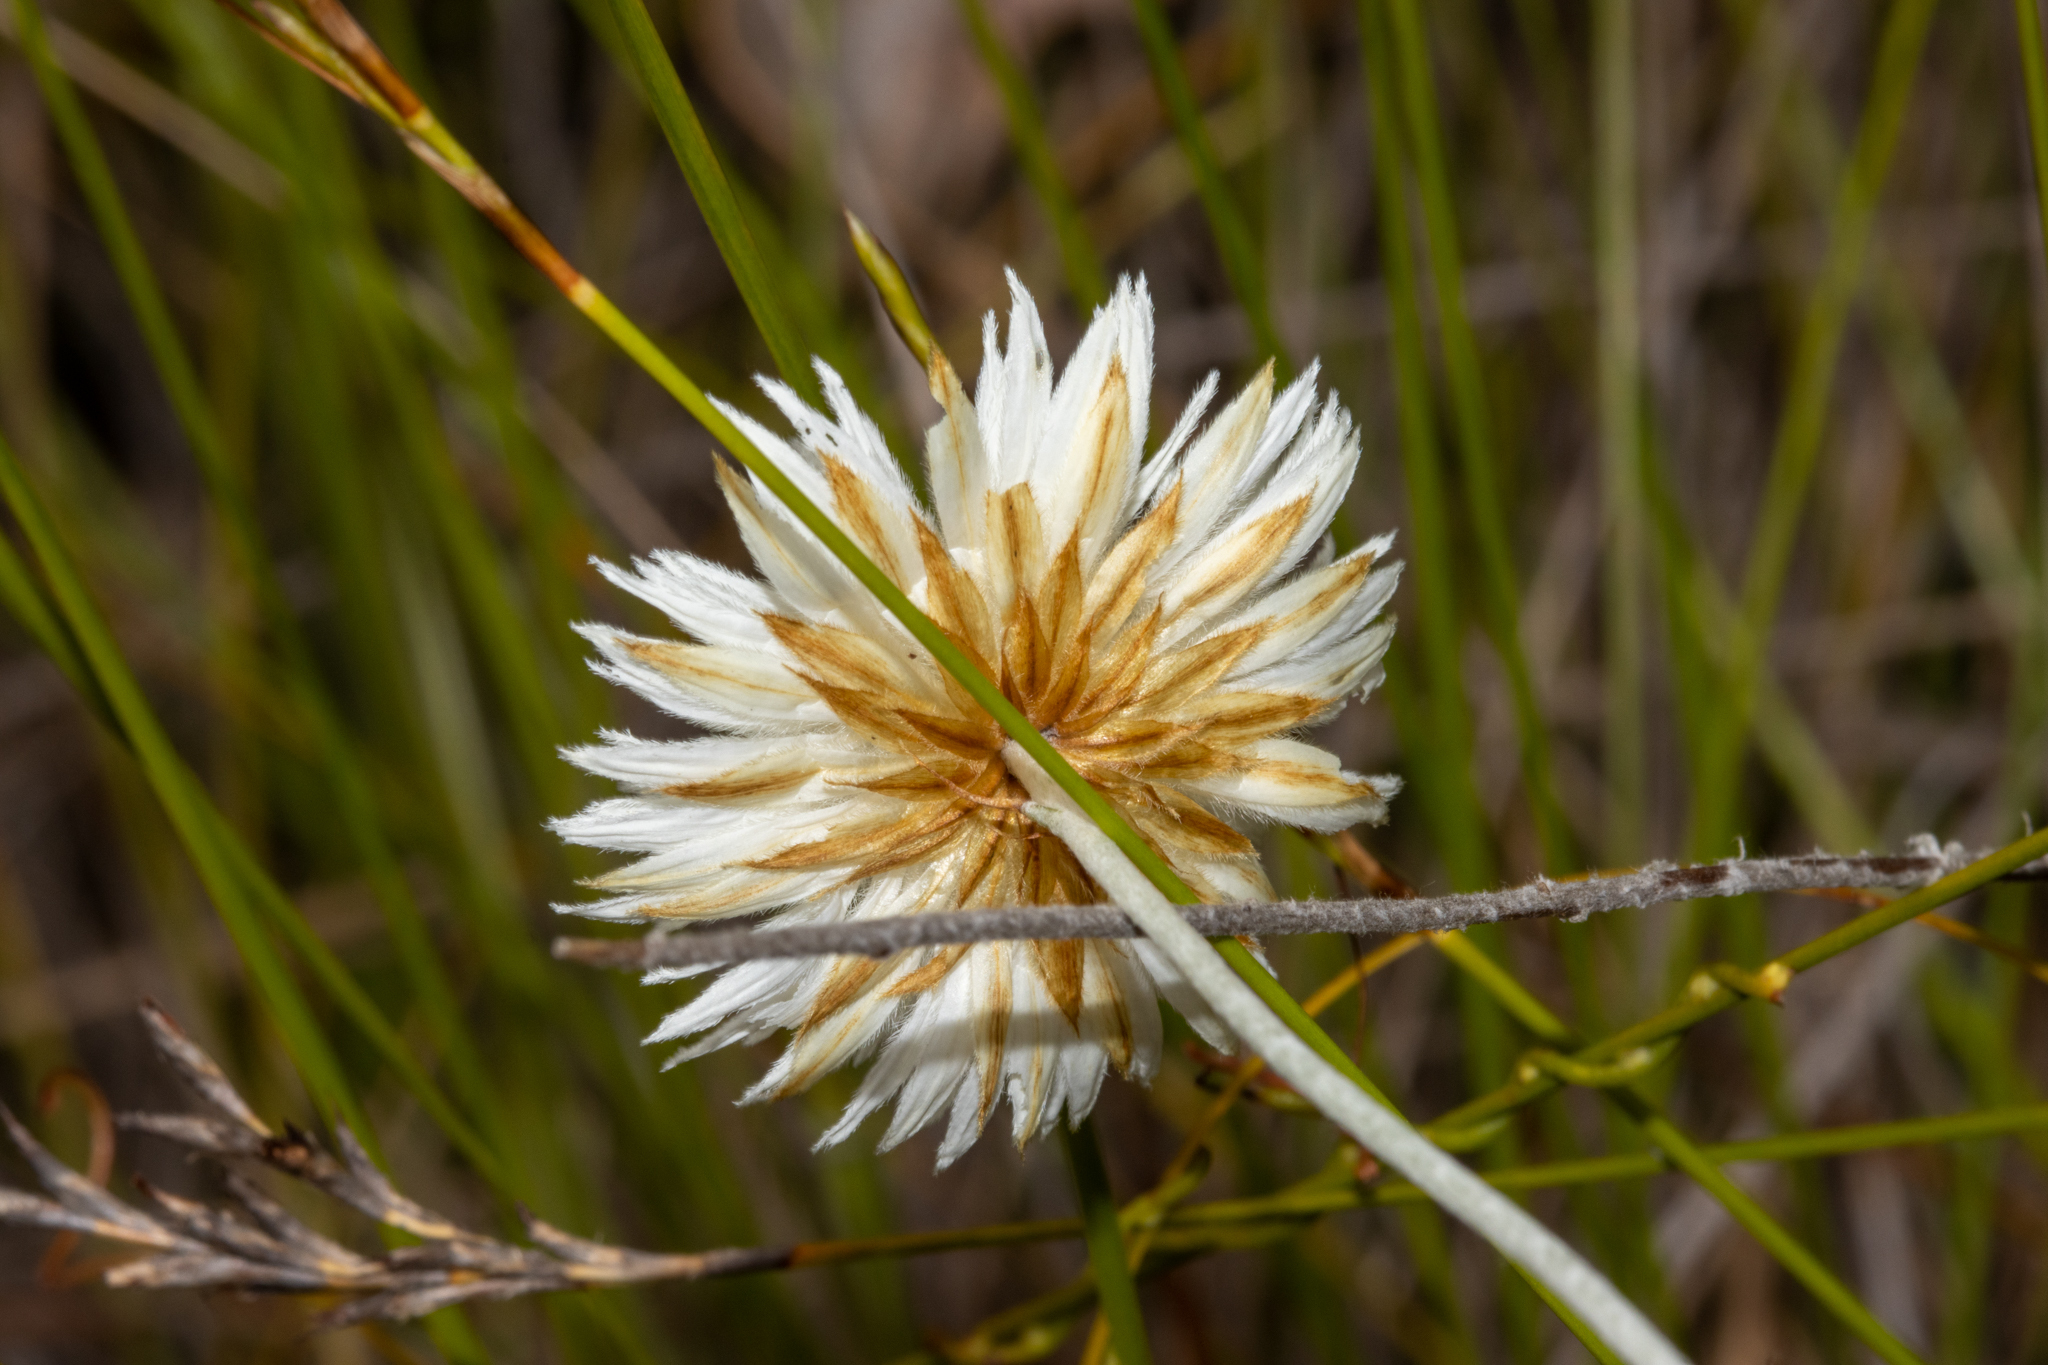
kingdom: Plantae
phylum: Tracheophyta
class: Magnoliopsida
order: Asterales
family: Asteraceae
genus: Chrysocephalum
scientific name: Chrysocephalum baxteri
